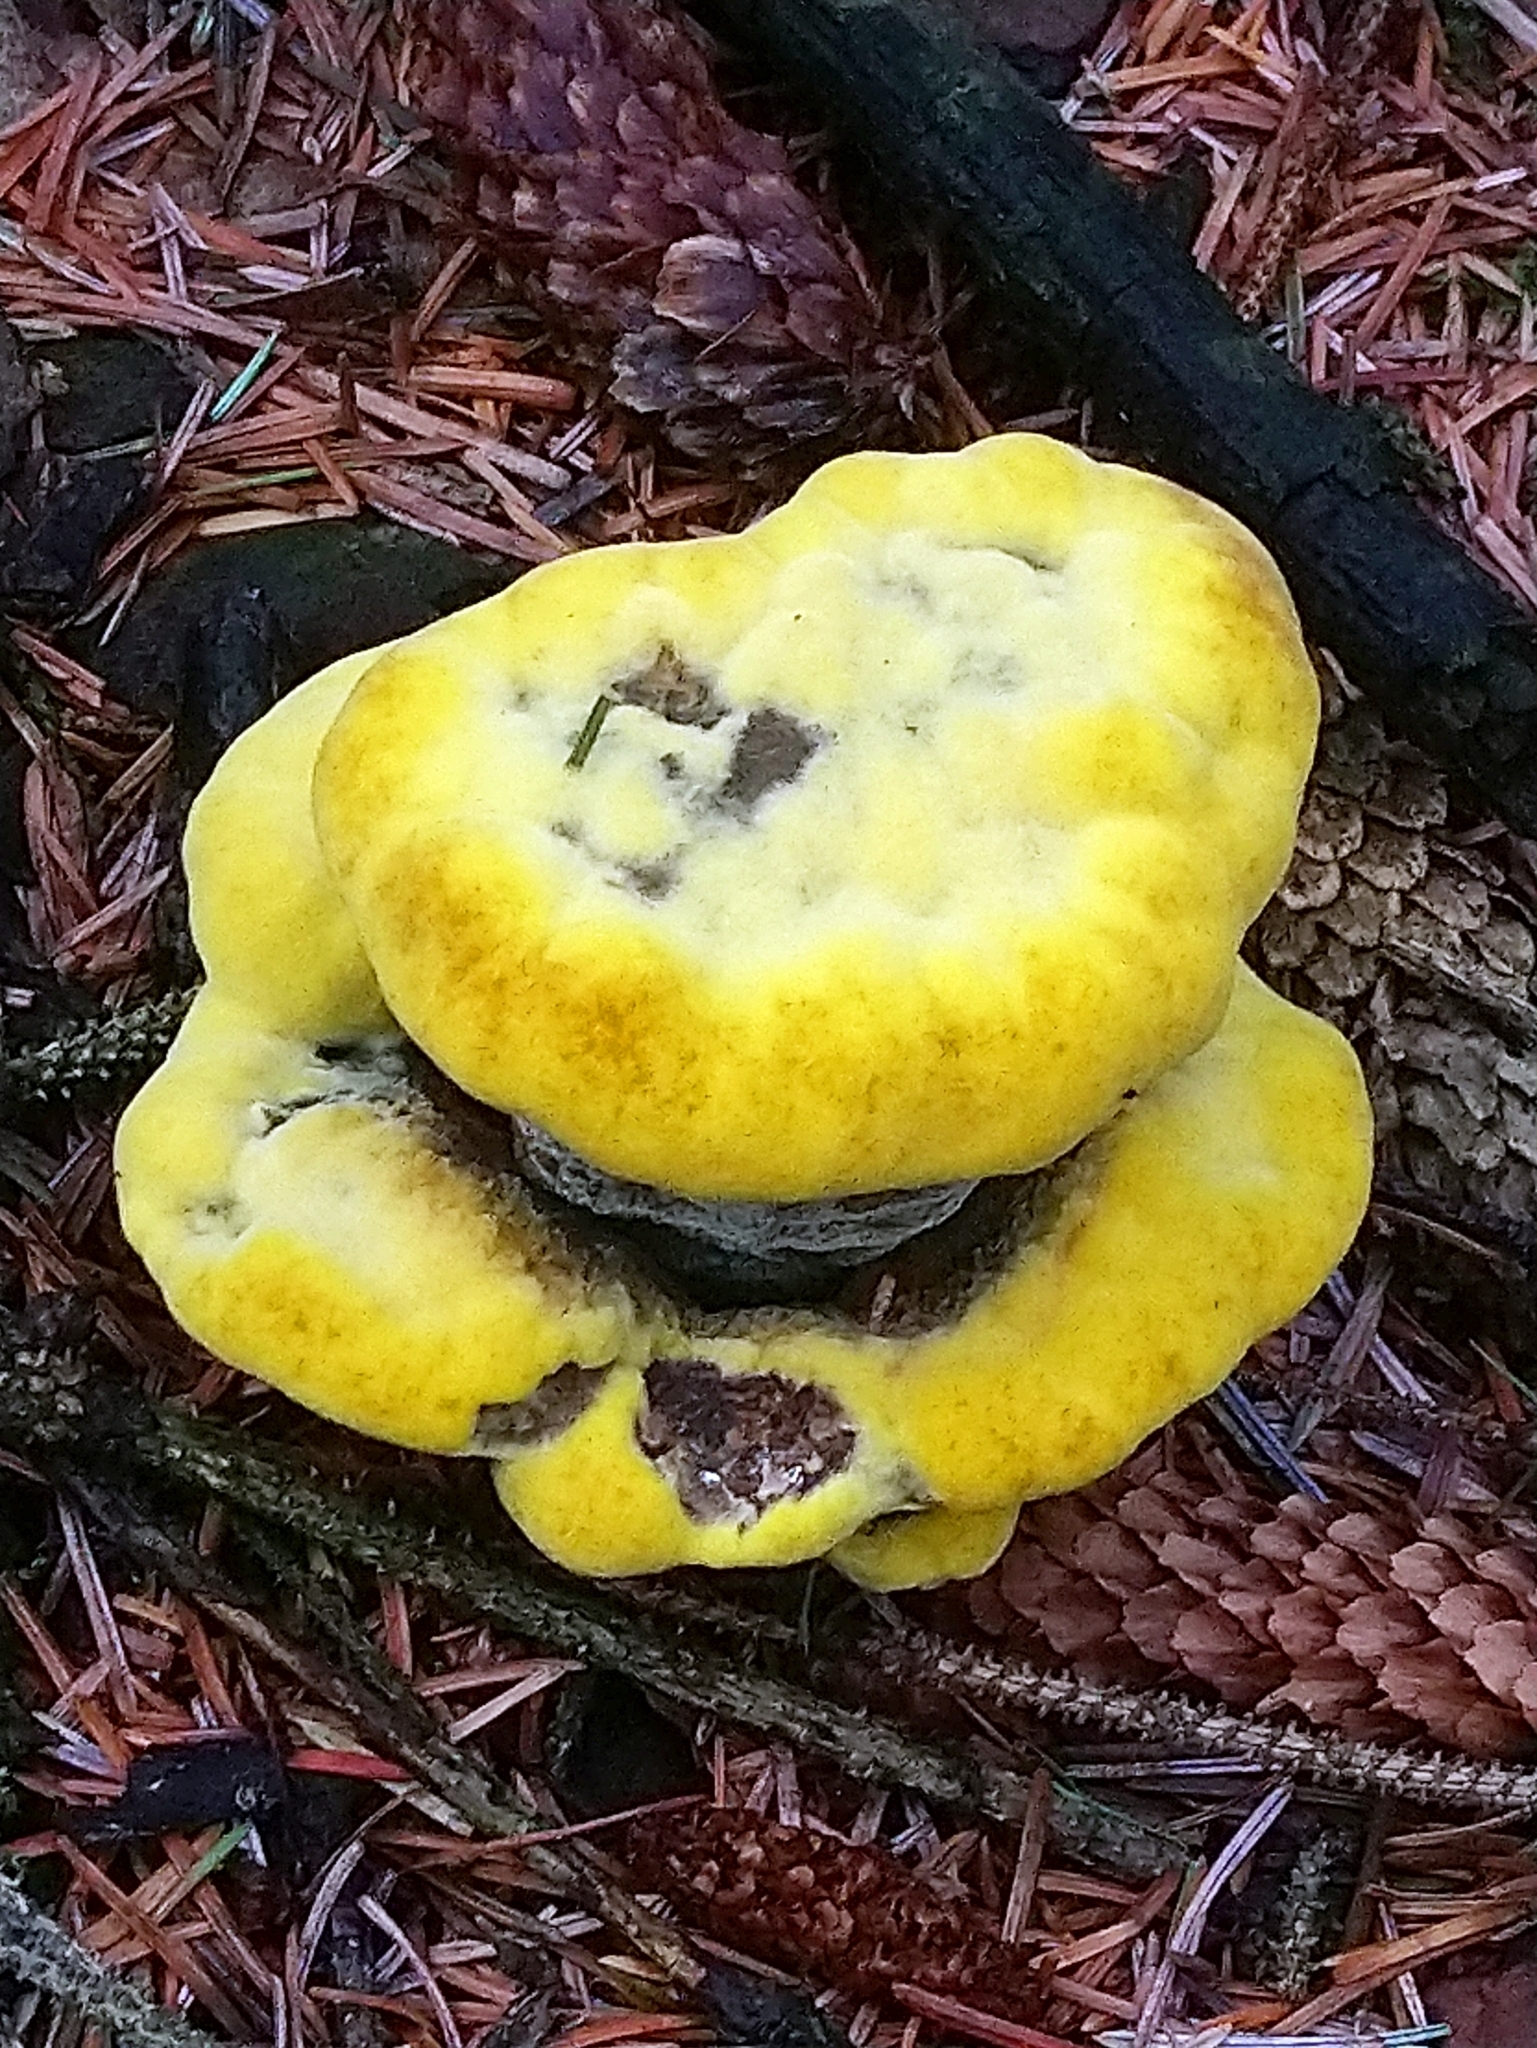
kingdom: Fungi
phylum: Basidiomycota
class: Agaricomycetes
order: Polyporales
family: Laetiporaceae
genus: Phaeolus
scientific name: Phaeolus schweinitzii
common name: Dyer's mazegill
